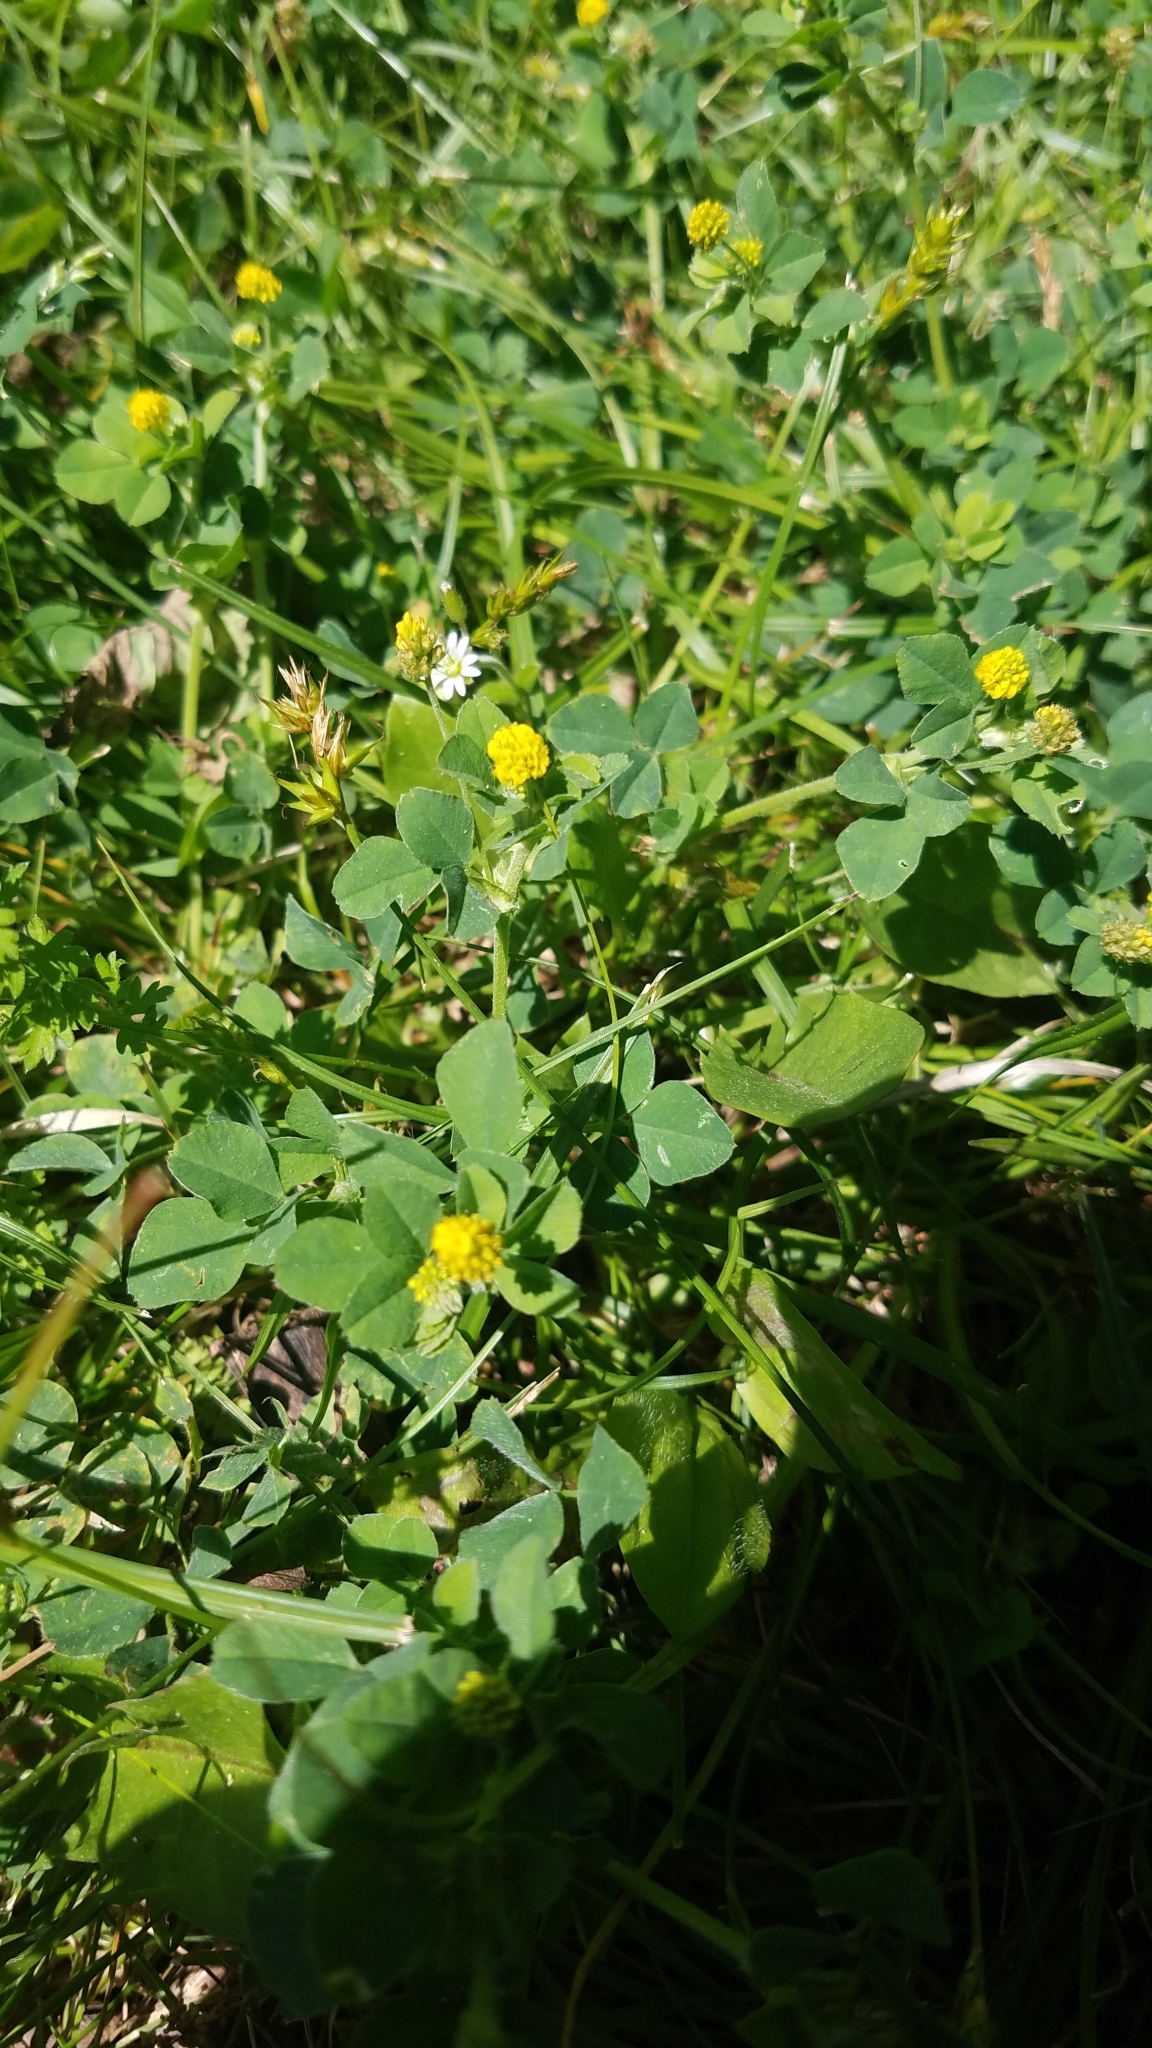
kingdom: Plantae
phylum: Tracheophyta
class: Magnoliopsida
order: Fabales
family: Fabaceae
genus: Medicago
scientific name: Medicago lupulina
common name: Black medick
